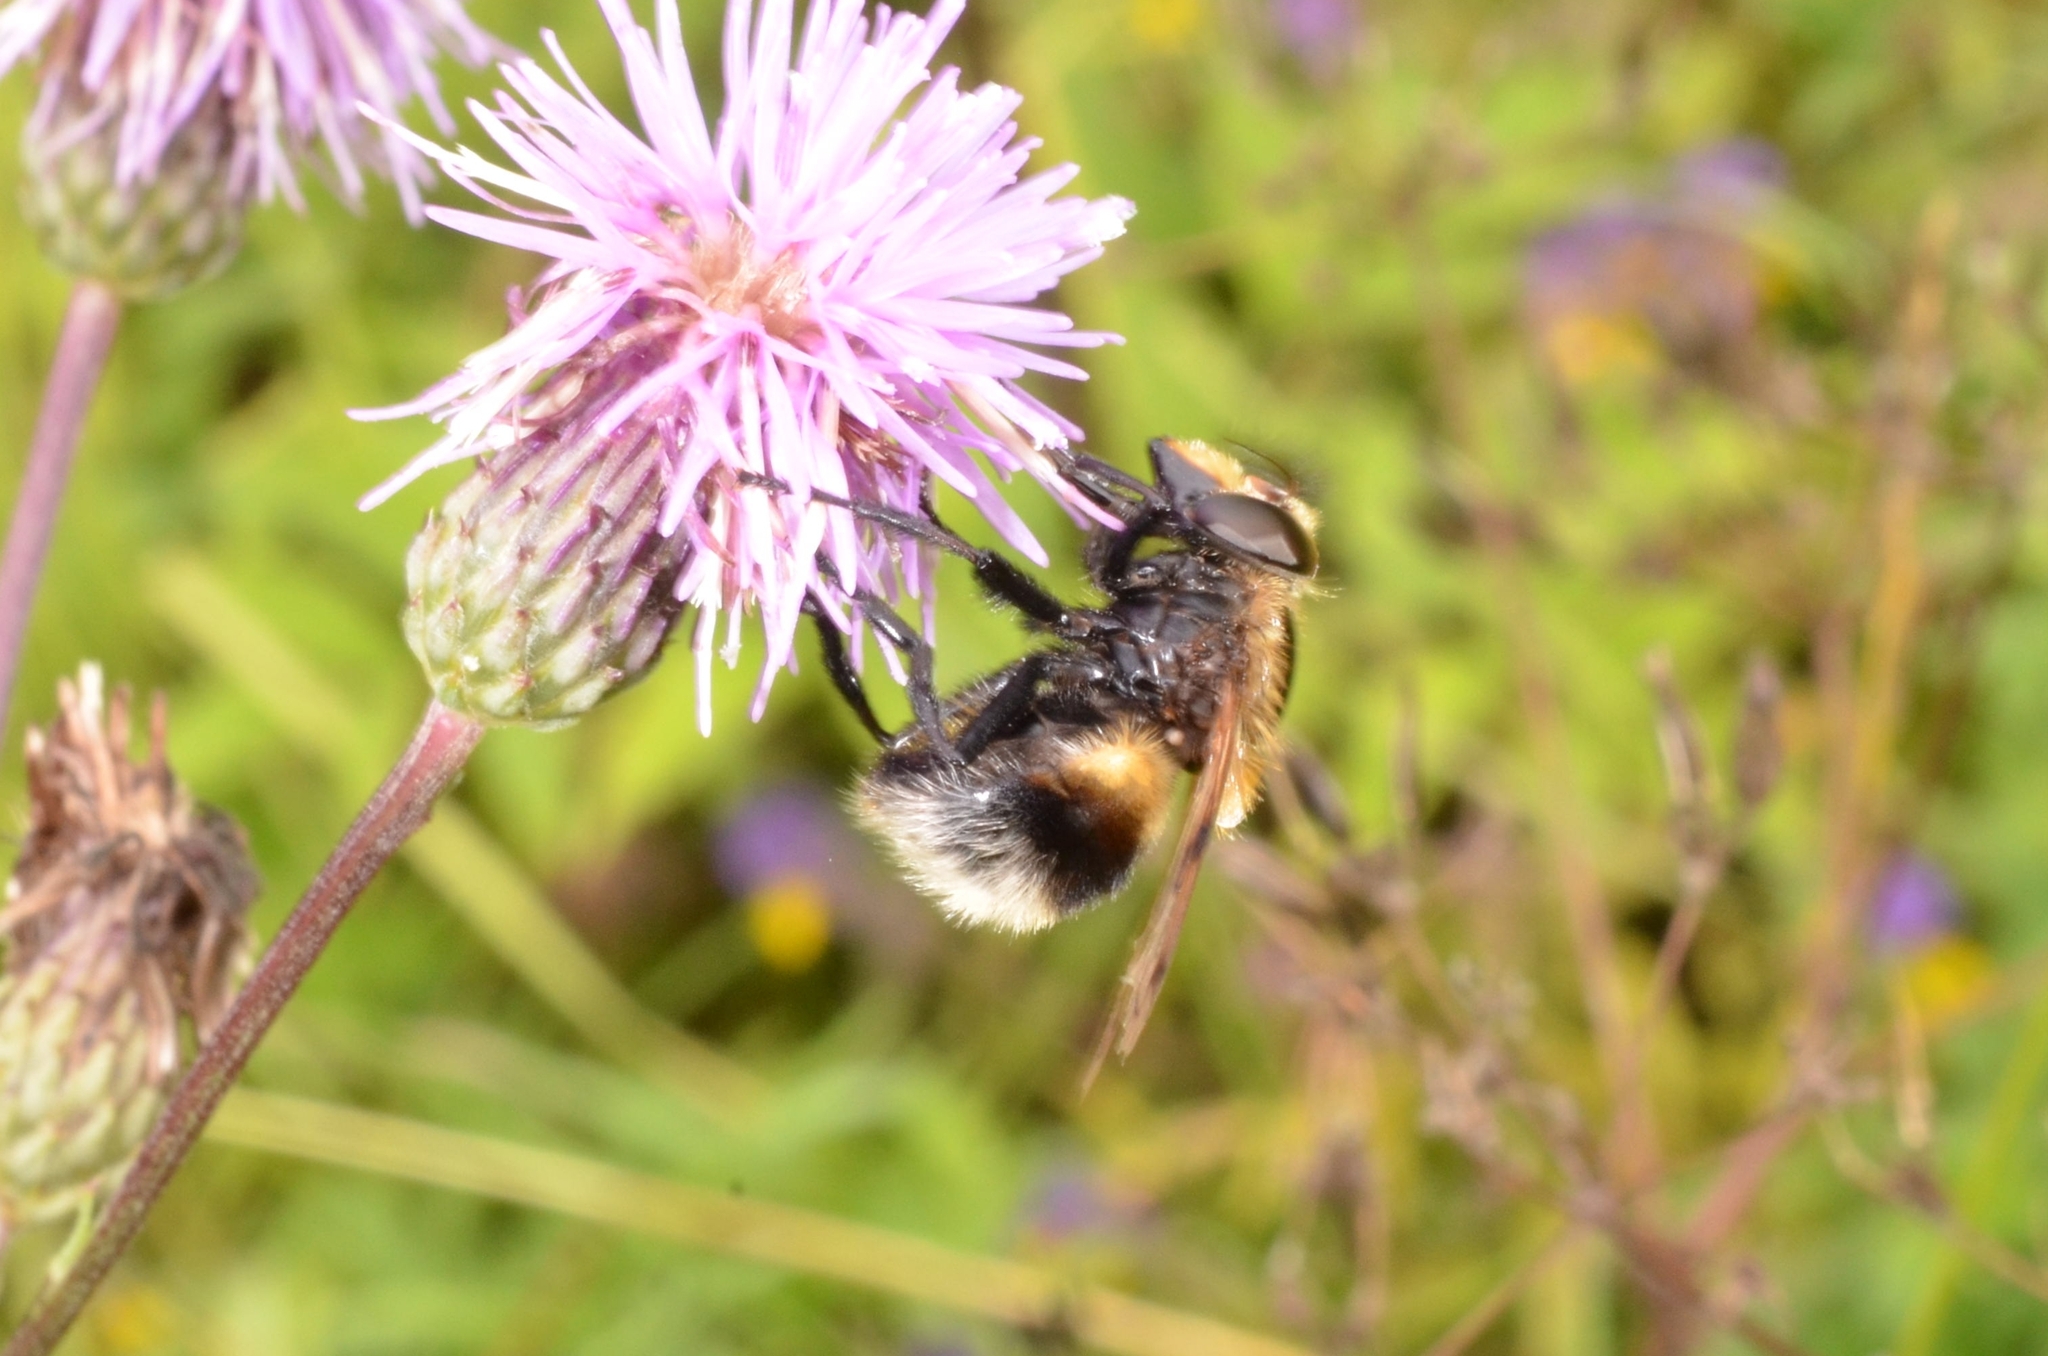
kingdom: Animalia
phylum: Arthropoda
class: Insecta
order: Diptera
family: Syrphidae
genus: Volucella
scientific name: Volucella bombylans
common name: Bumble bee hover fly
